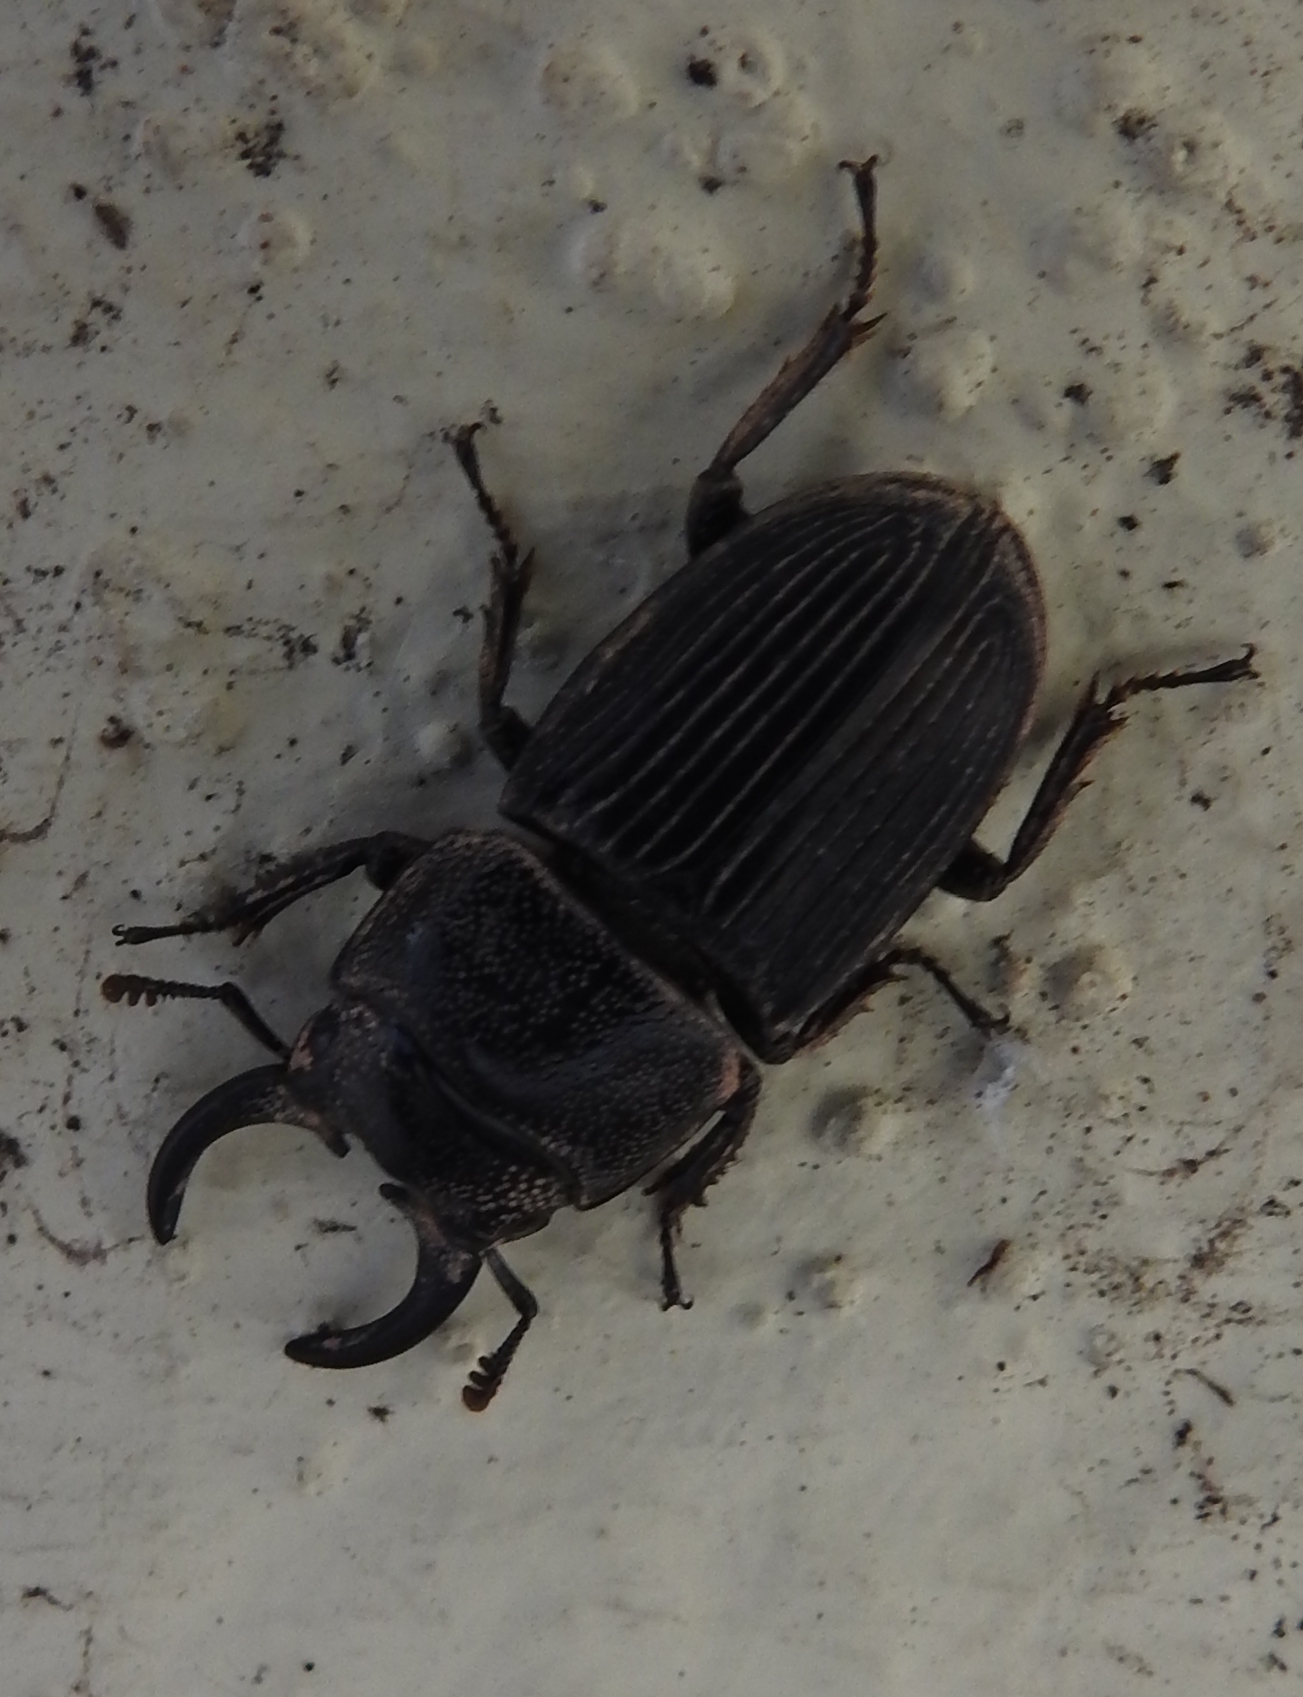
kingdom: Animalia
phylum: Arthropoda
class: Insecta
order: Coleoptera
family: Lucanidae
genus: Aegus
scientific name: Aegus chelifer
